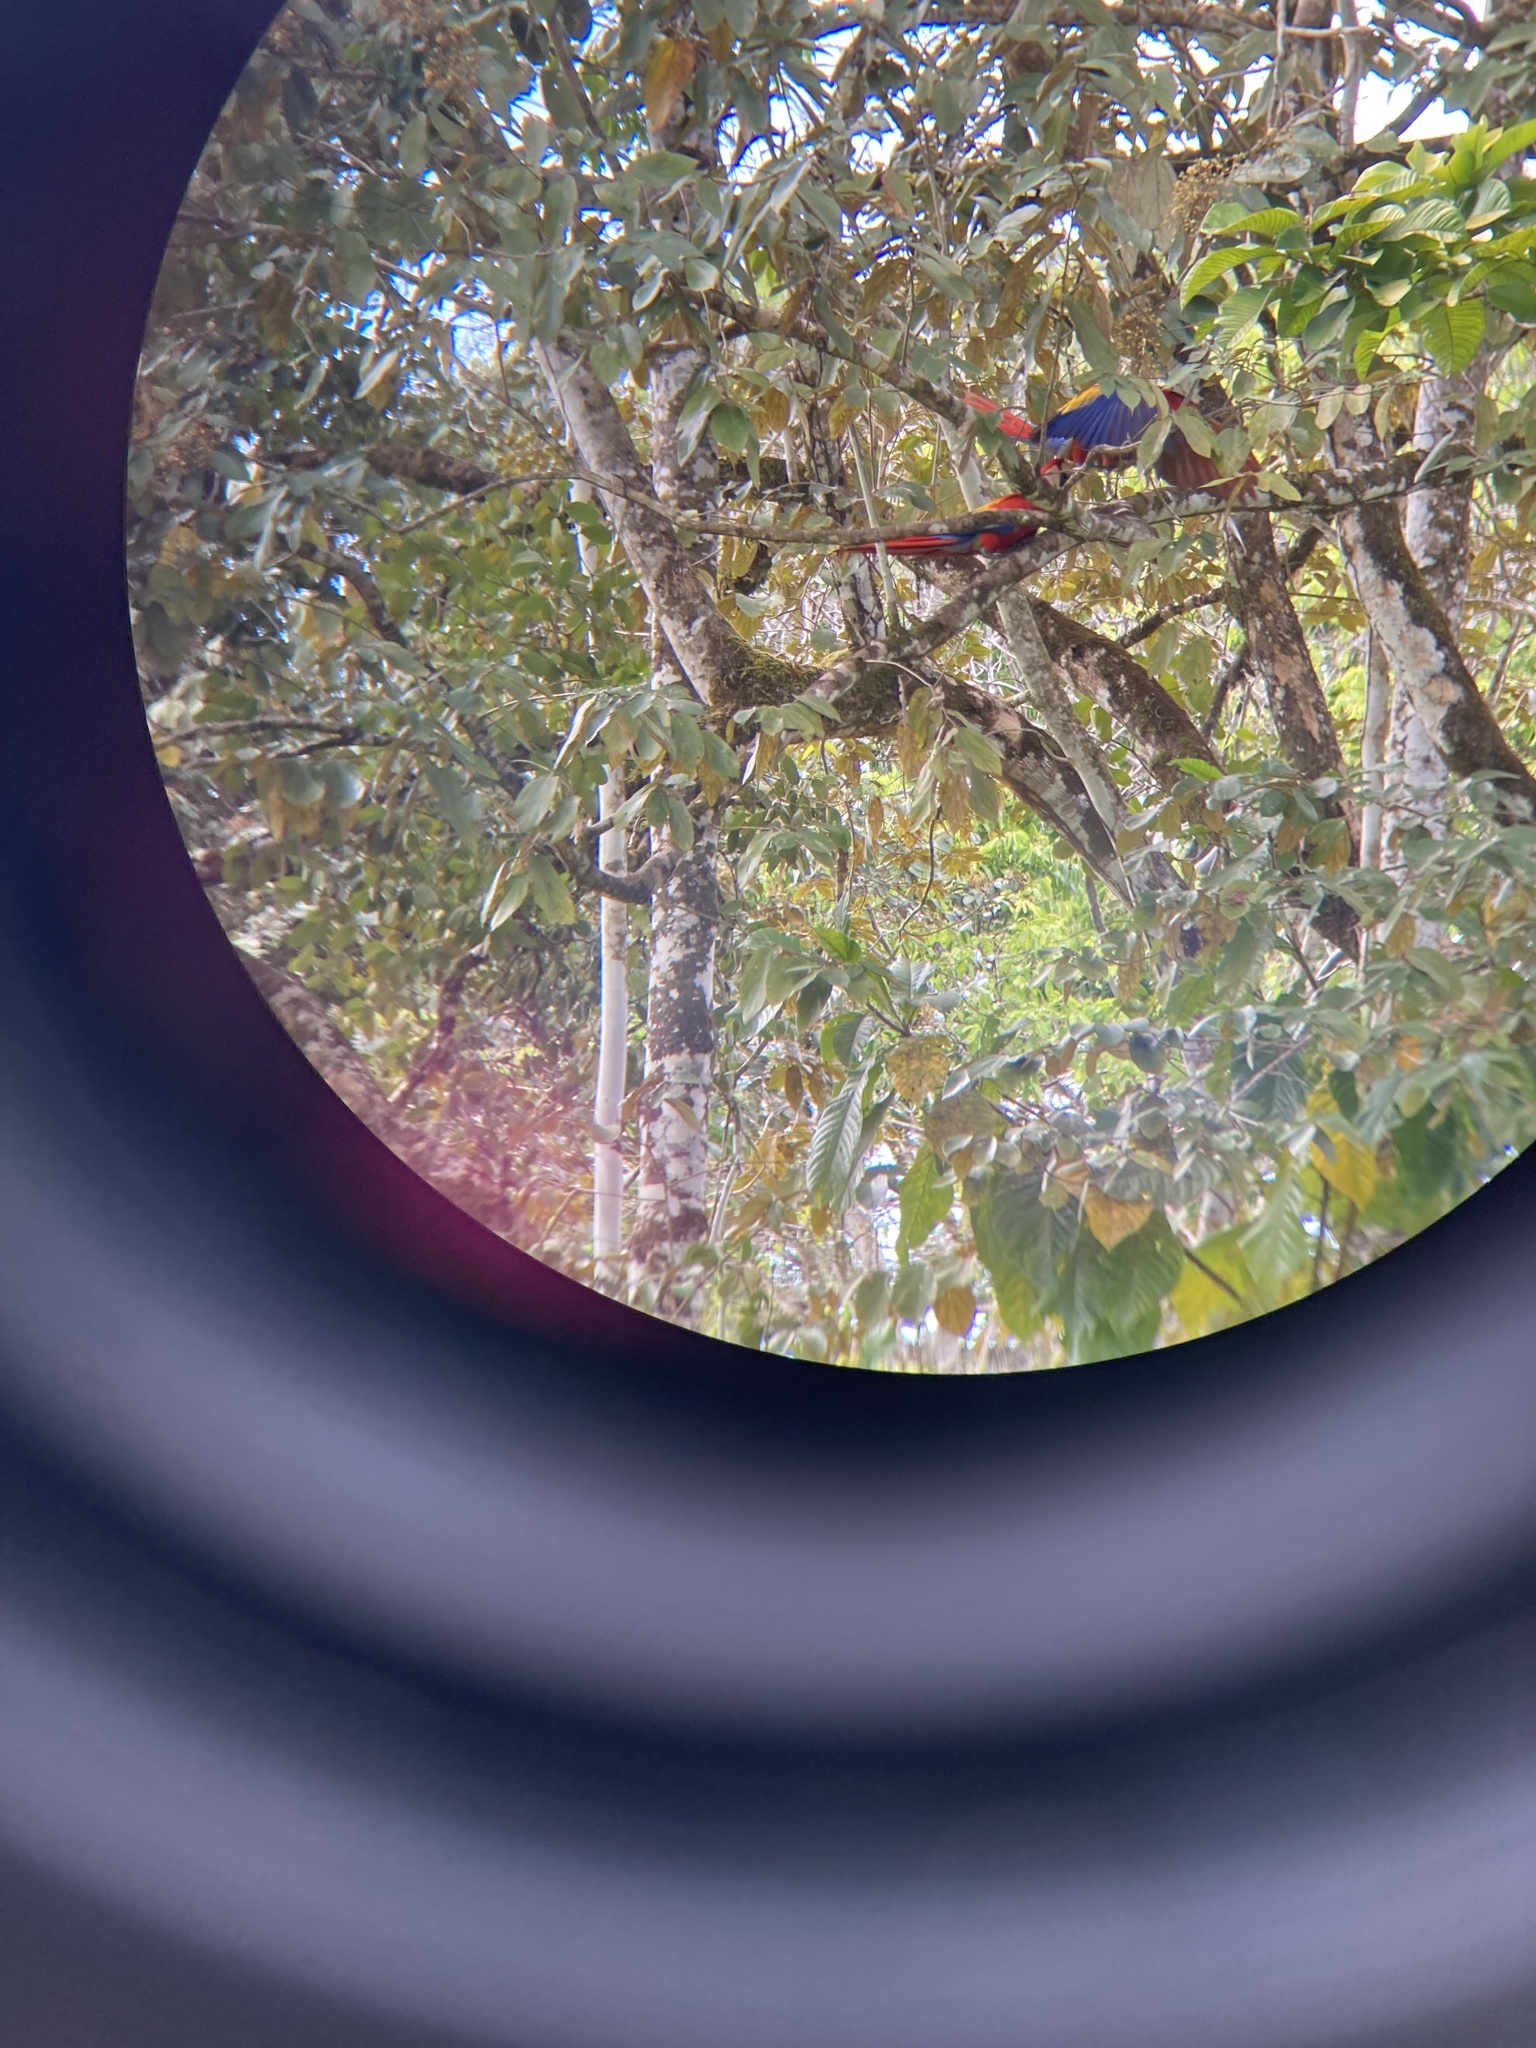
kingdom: Animalia
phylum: Chordata
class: Aves
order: Psittaciformes
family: Psittacidae
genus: Ara
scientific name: Ara macao
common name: Scarlet macaw
